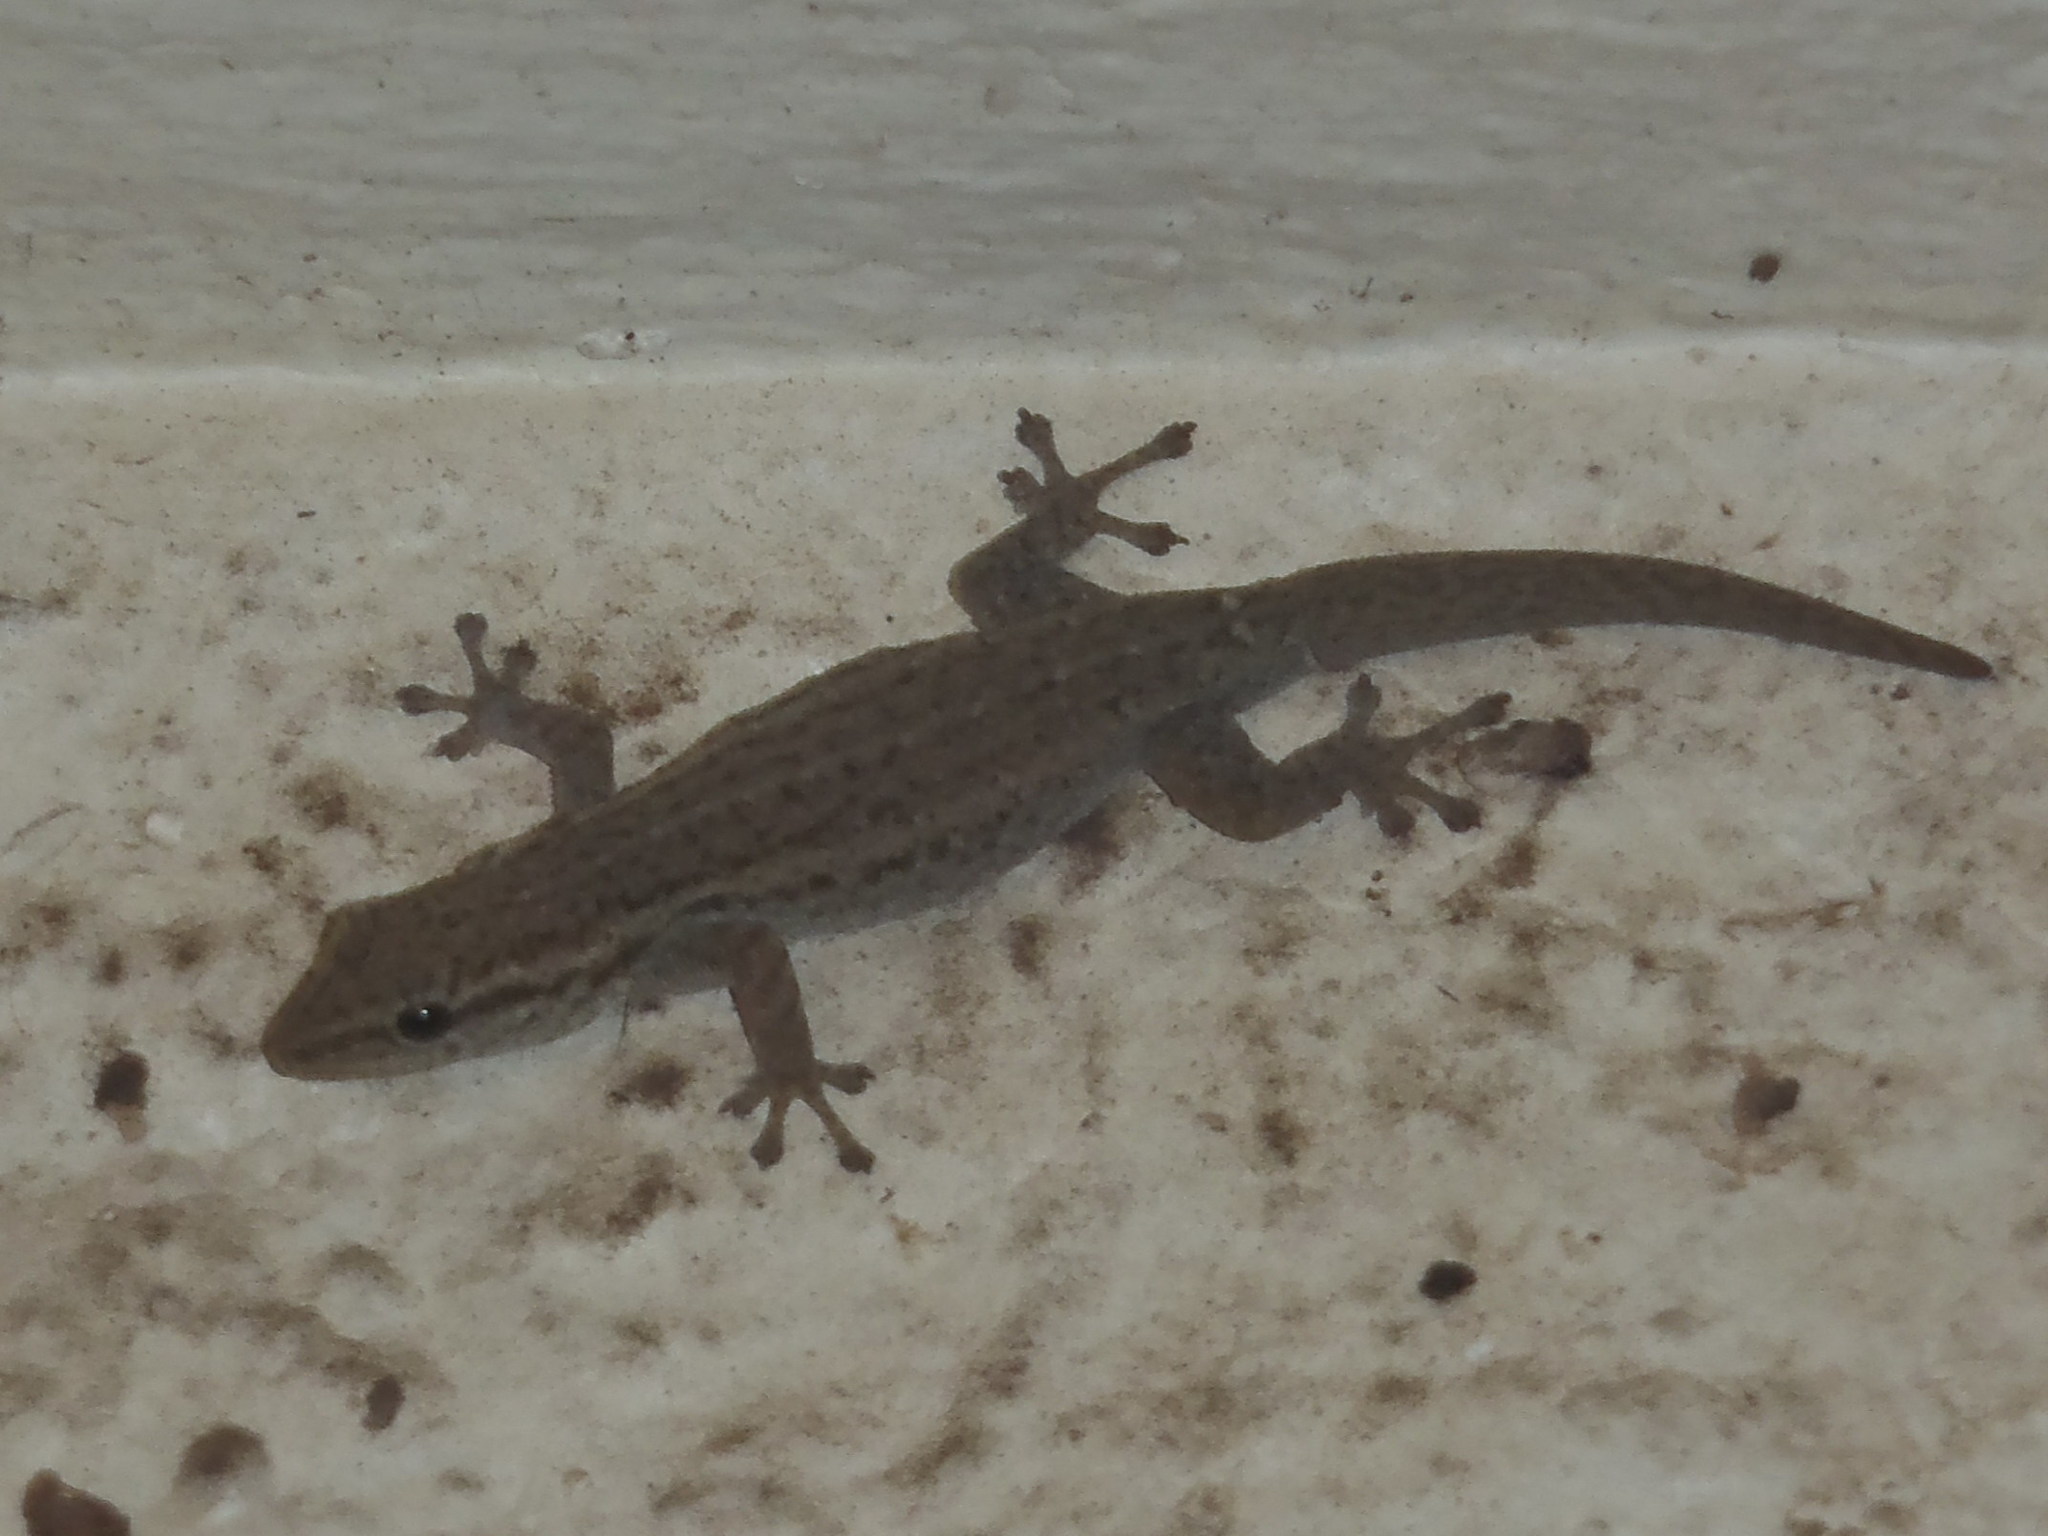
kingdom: Animalia
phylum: Chordata
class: Squamata
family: Gekkonidae
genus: Lygodactylus
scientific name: Lygodactylus capensis
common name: Cape dwarf gecko
